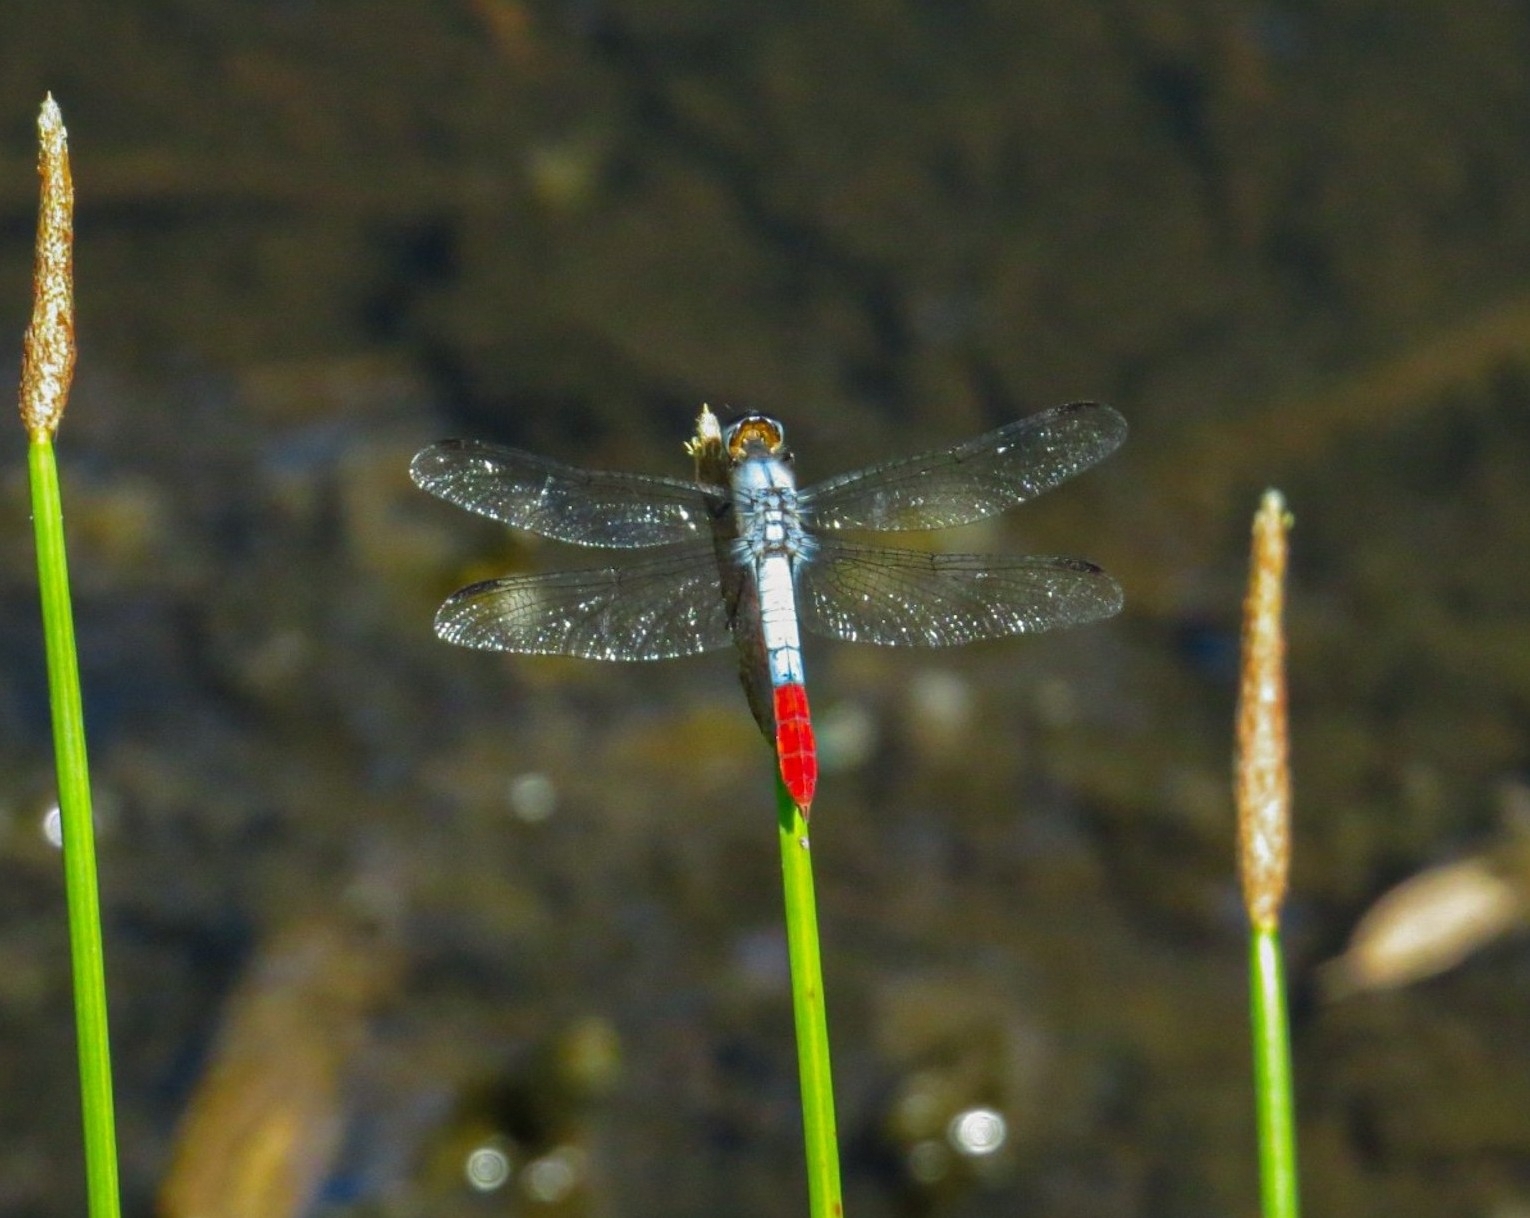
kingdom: Animalia
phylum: Arthropoda
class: Insecta
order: Odonata
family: Libellulidae
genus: Planiplax
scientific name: Planiplax erythropyga
